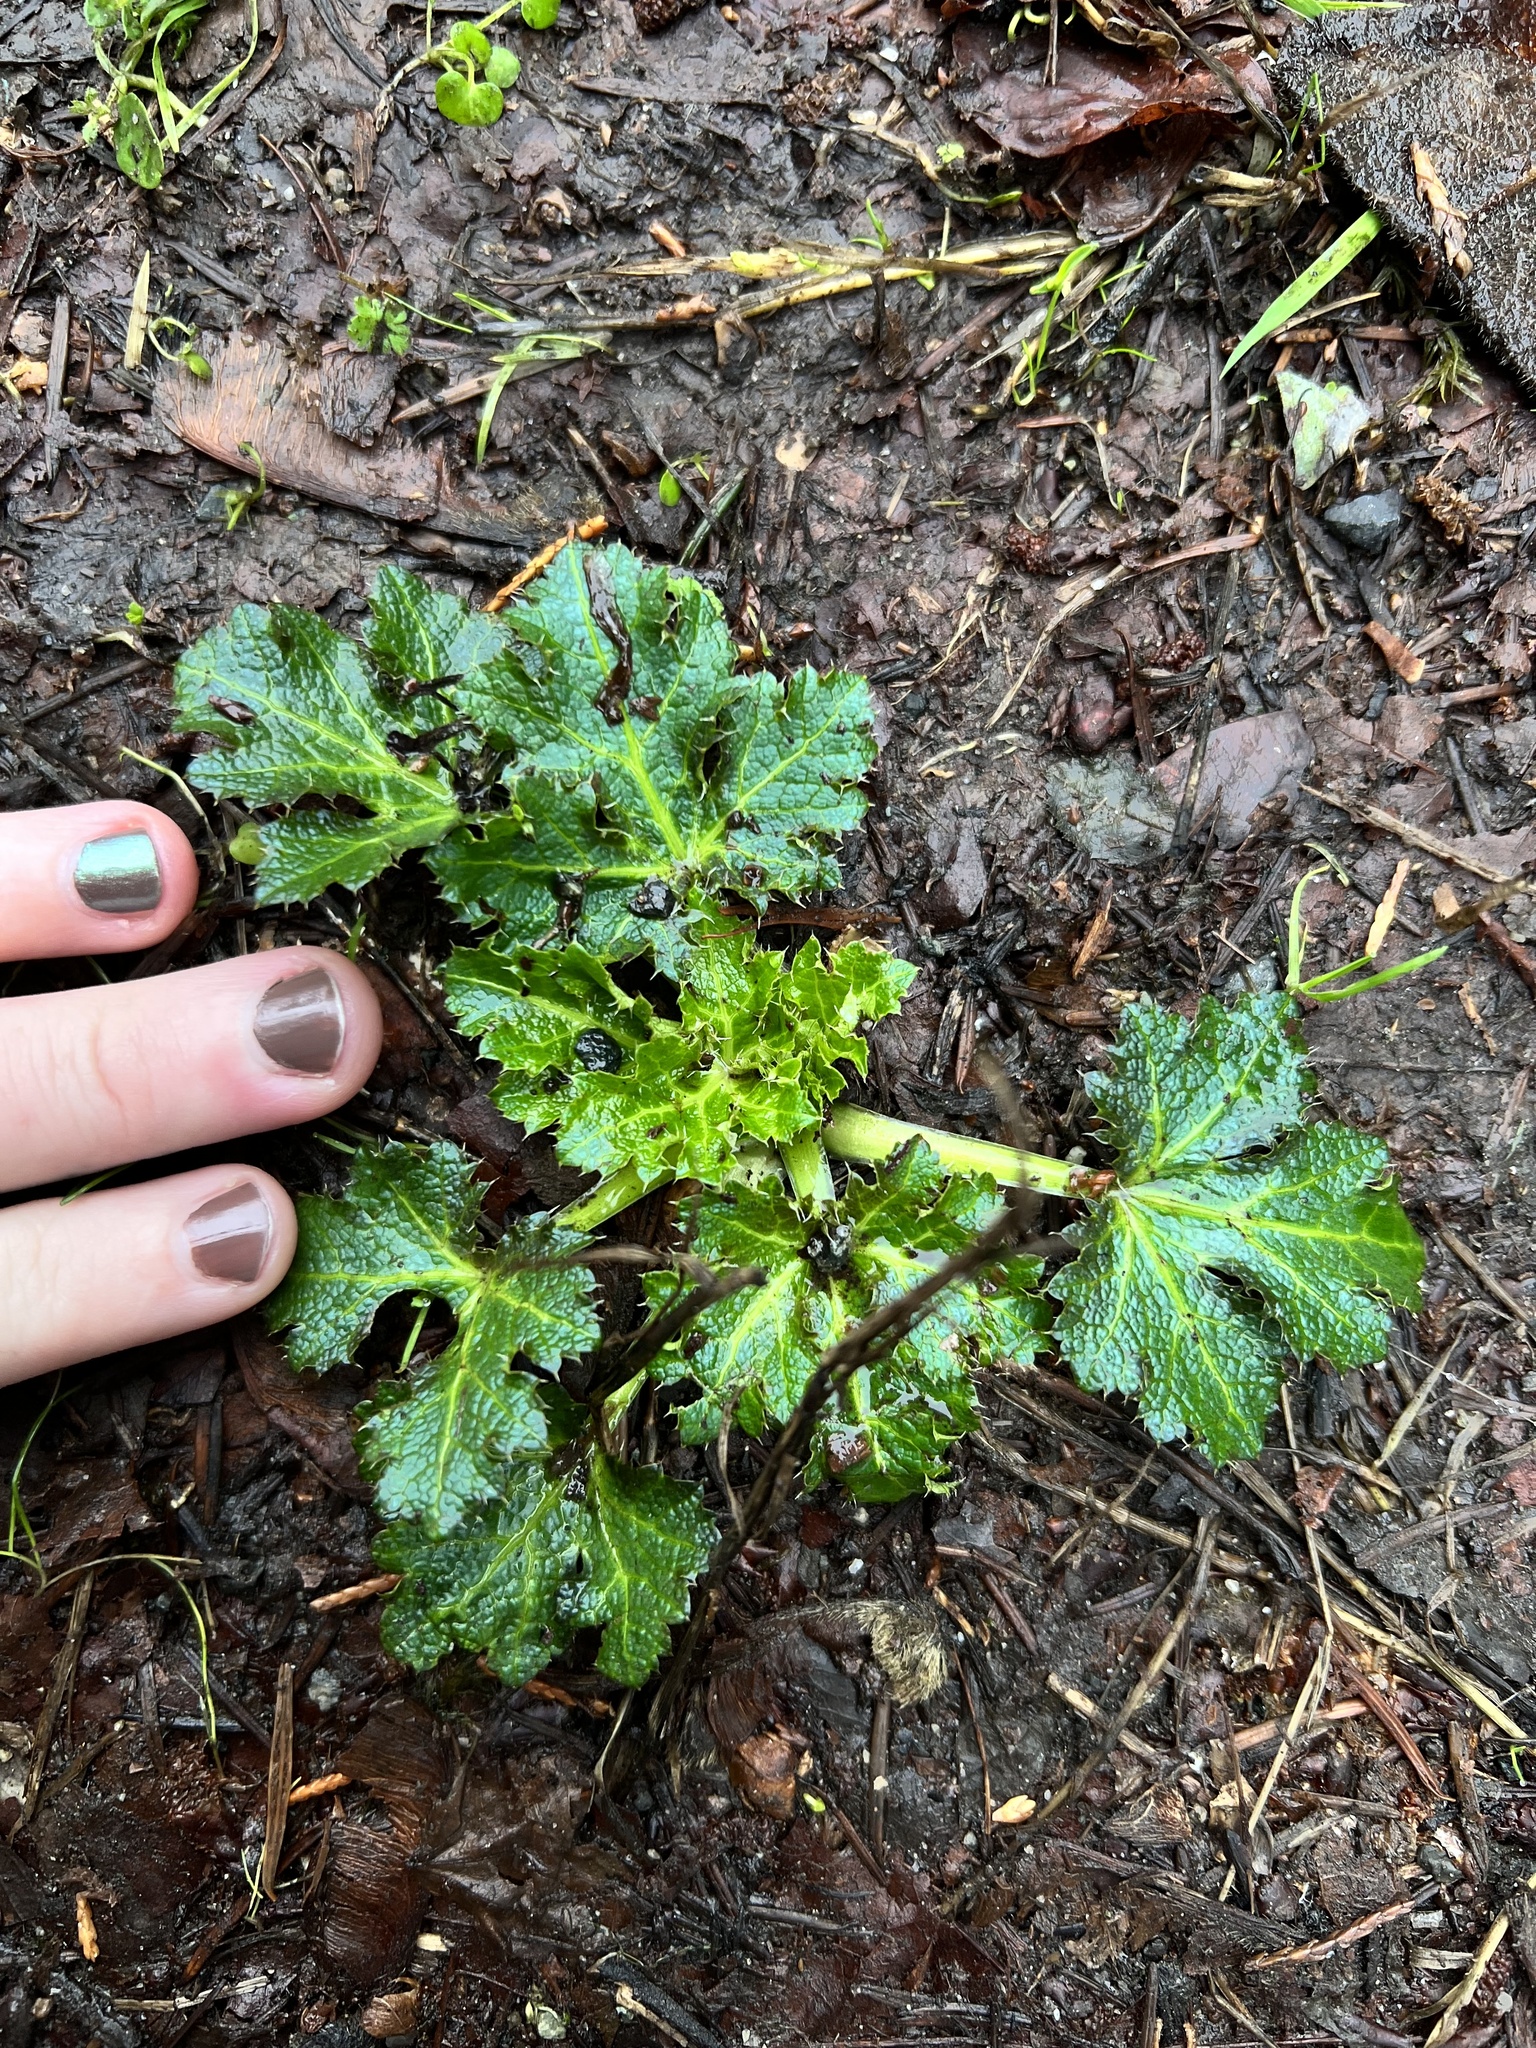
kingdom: Plantae
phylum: Tracheophyta
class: Magnoliopsida
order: Apiales
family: Apiaceae
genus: Sanicula
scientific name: Sanicula crassicaulis
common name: Western snakeroot
